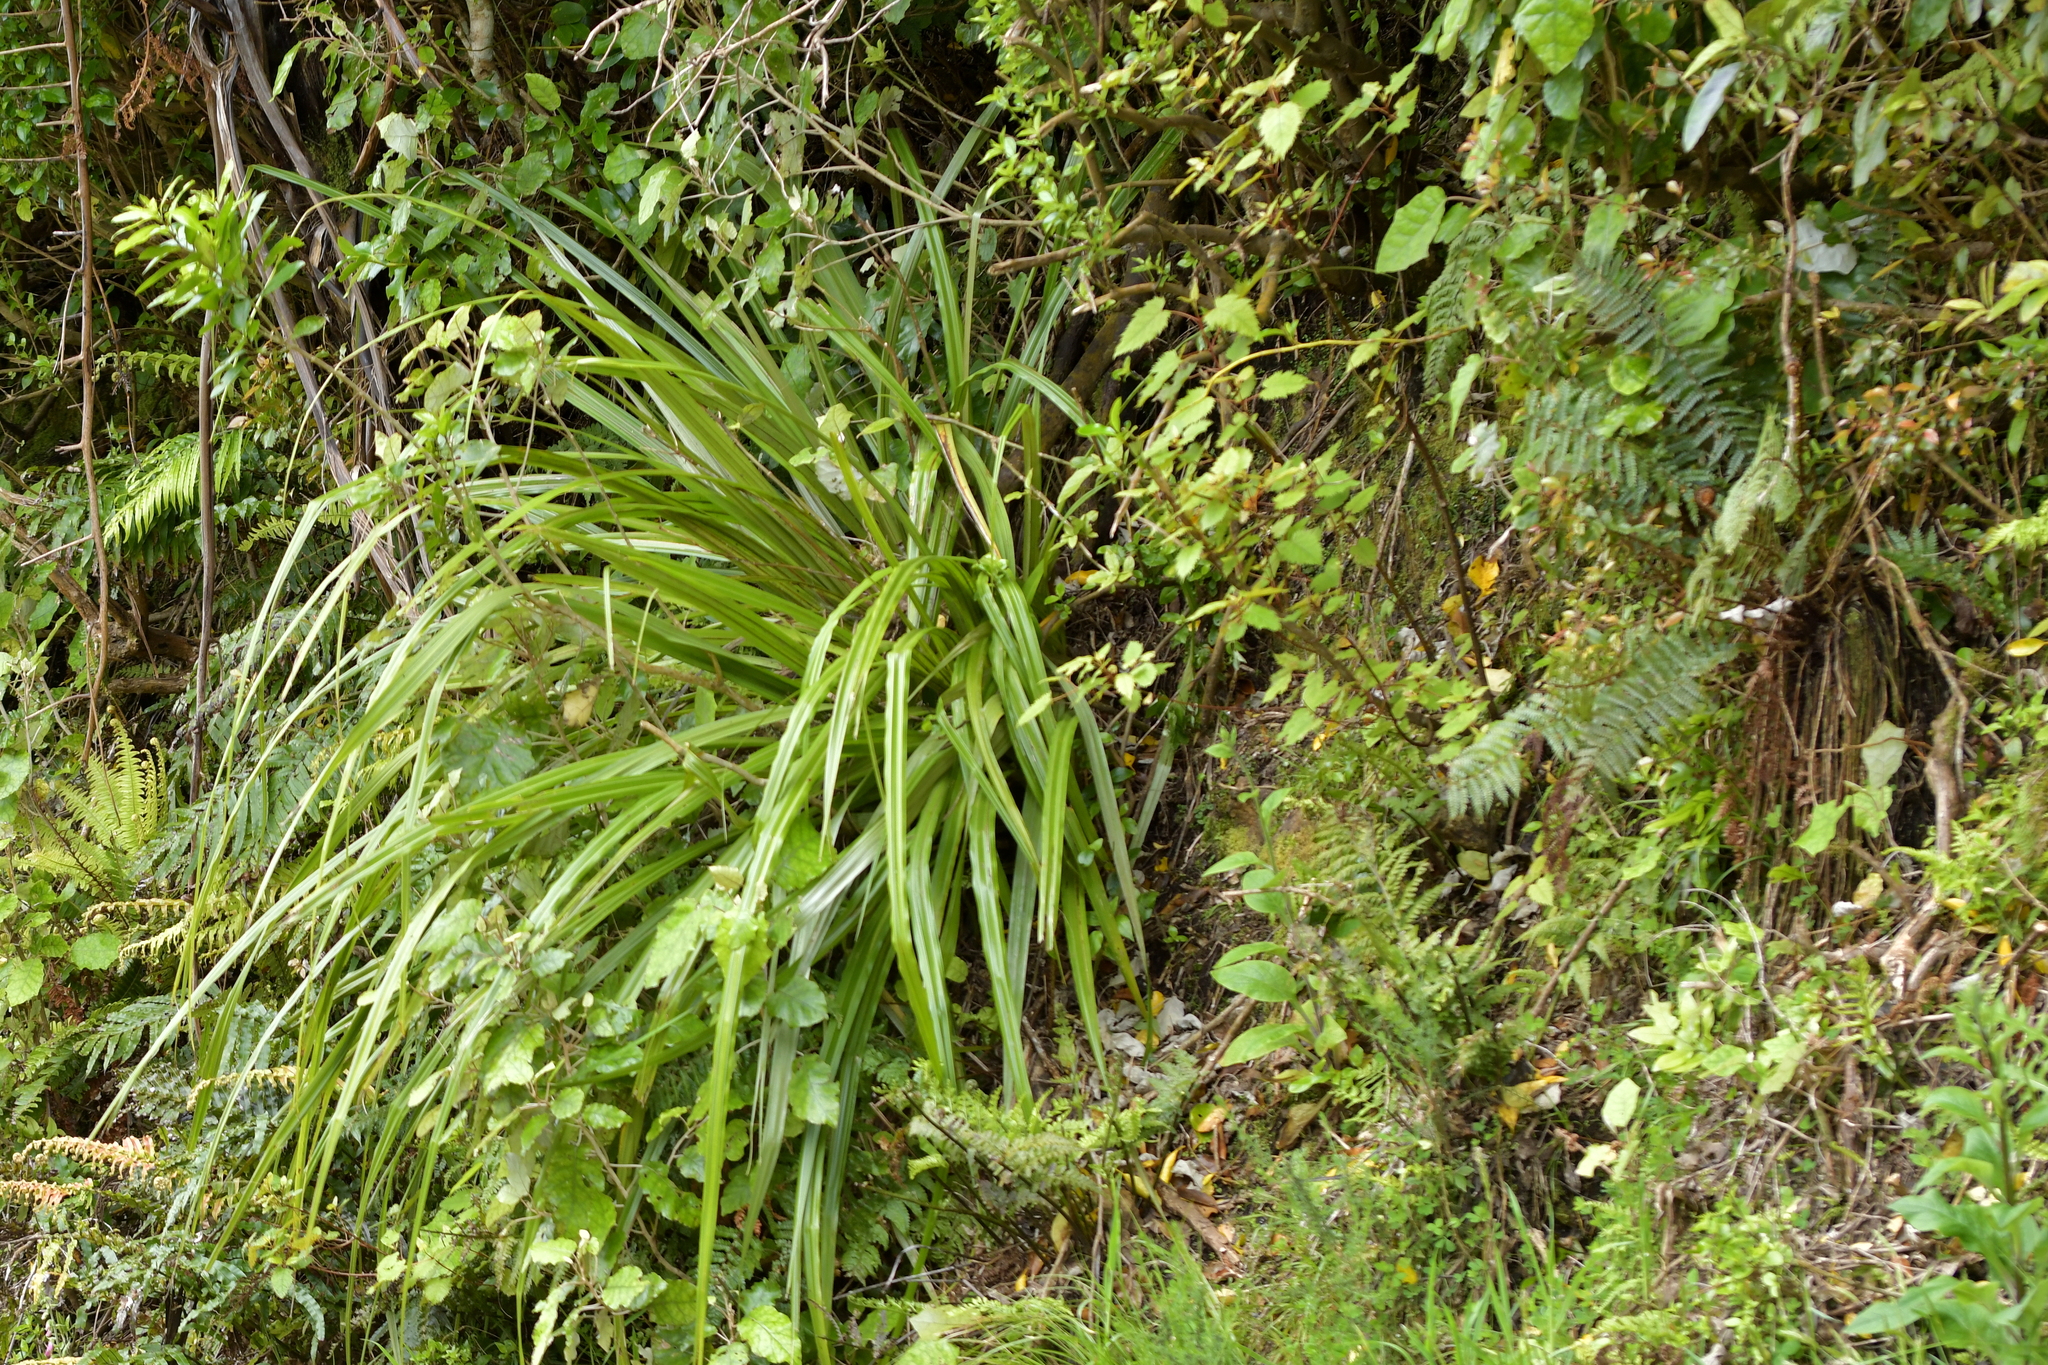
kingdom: Plantae
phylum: Tracheophyta
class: Liliopsida
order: Asparagales
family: Asteliaceae
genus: Astelia
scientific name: Astelia fragrans
